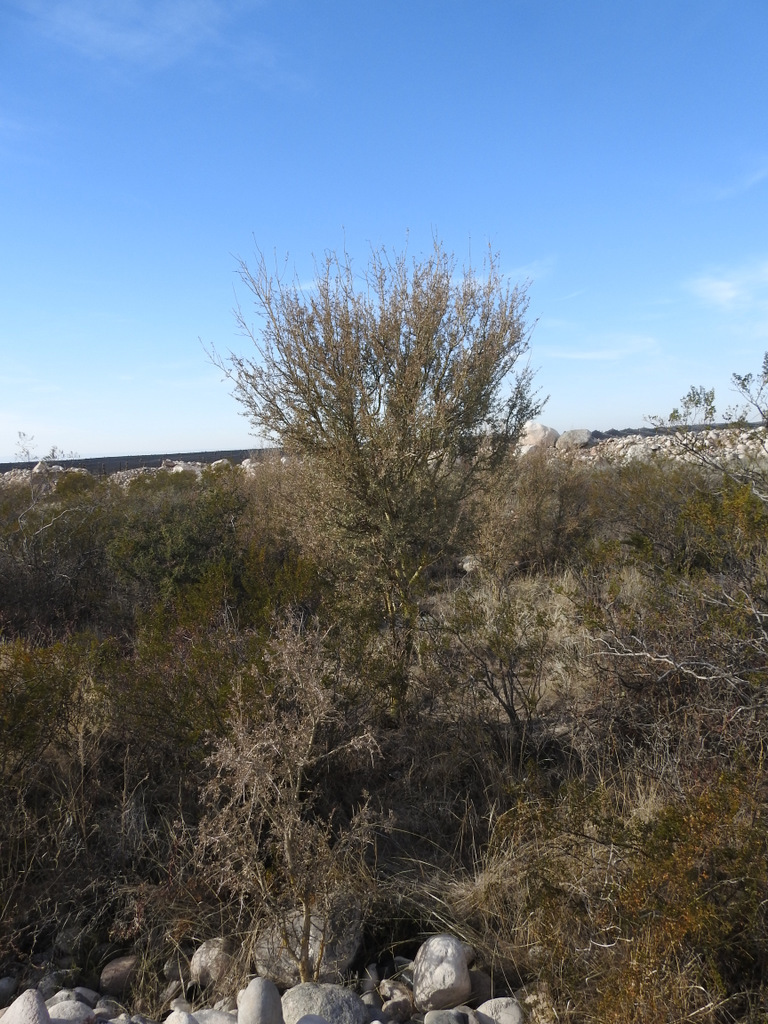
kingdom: Plantae
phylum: Tracheophyta
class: Magnoliopsida
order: Fabales
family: Fabaceae
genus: Geoffroea
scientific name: Geoffroea decorticans
